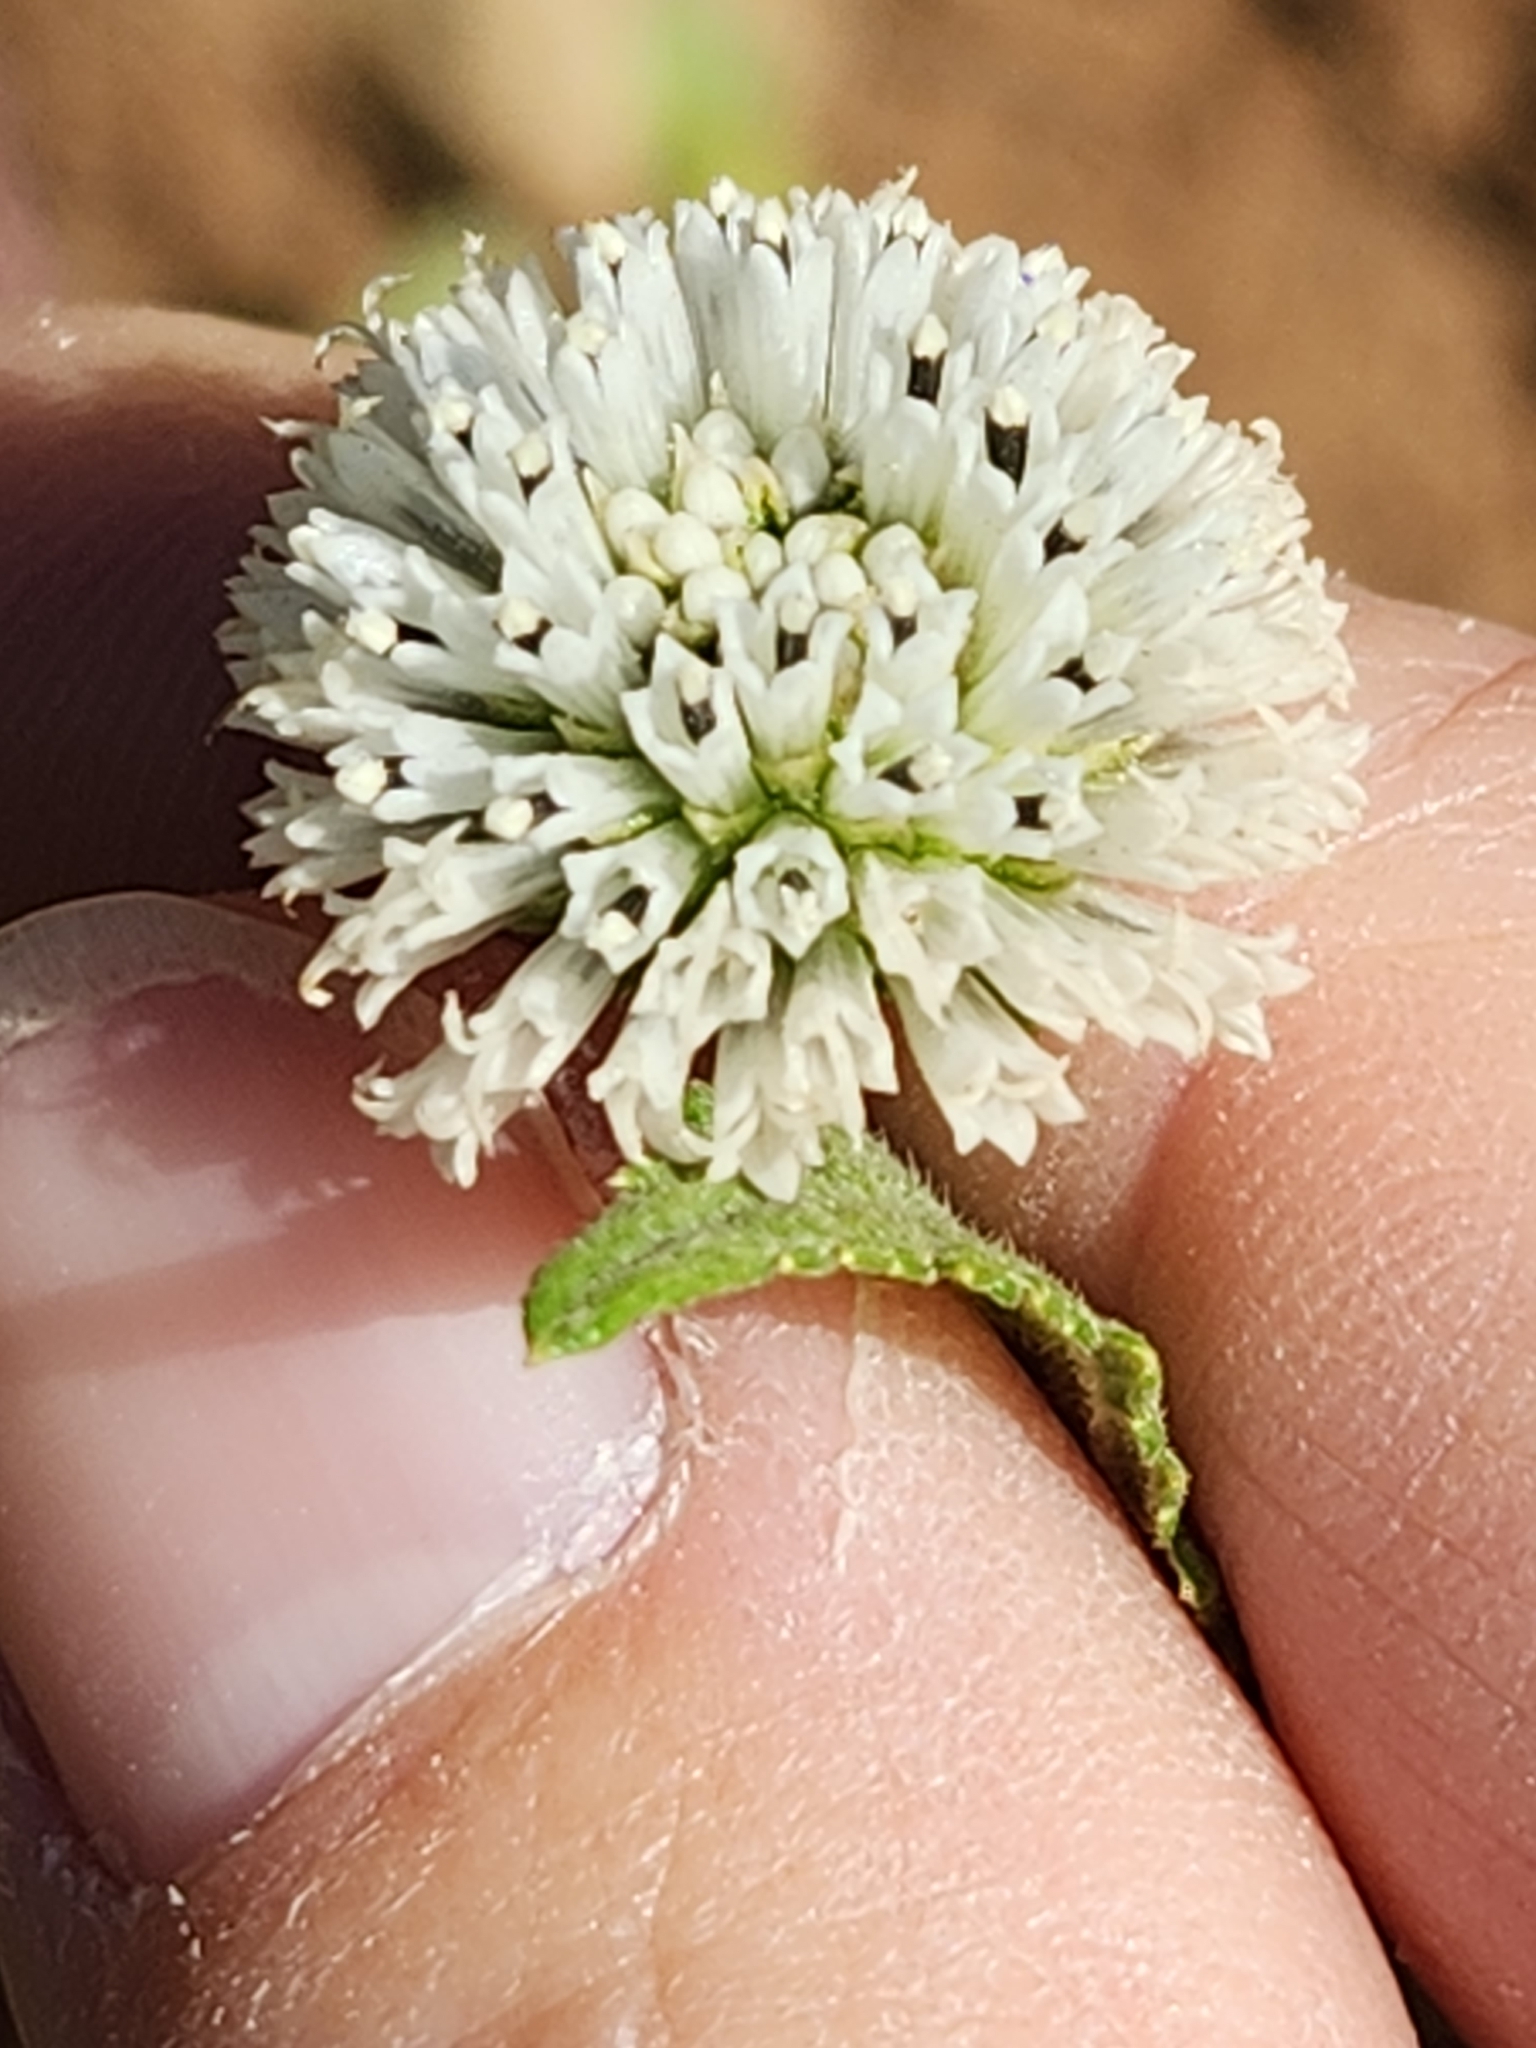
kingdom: Plantae
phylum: Tracheophyta
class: Magnoliopsida
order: Asterales
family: Asteraceae
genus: Melanthera
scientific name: Melanthera nivea
